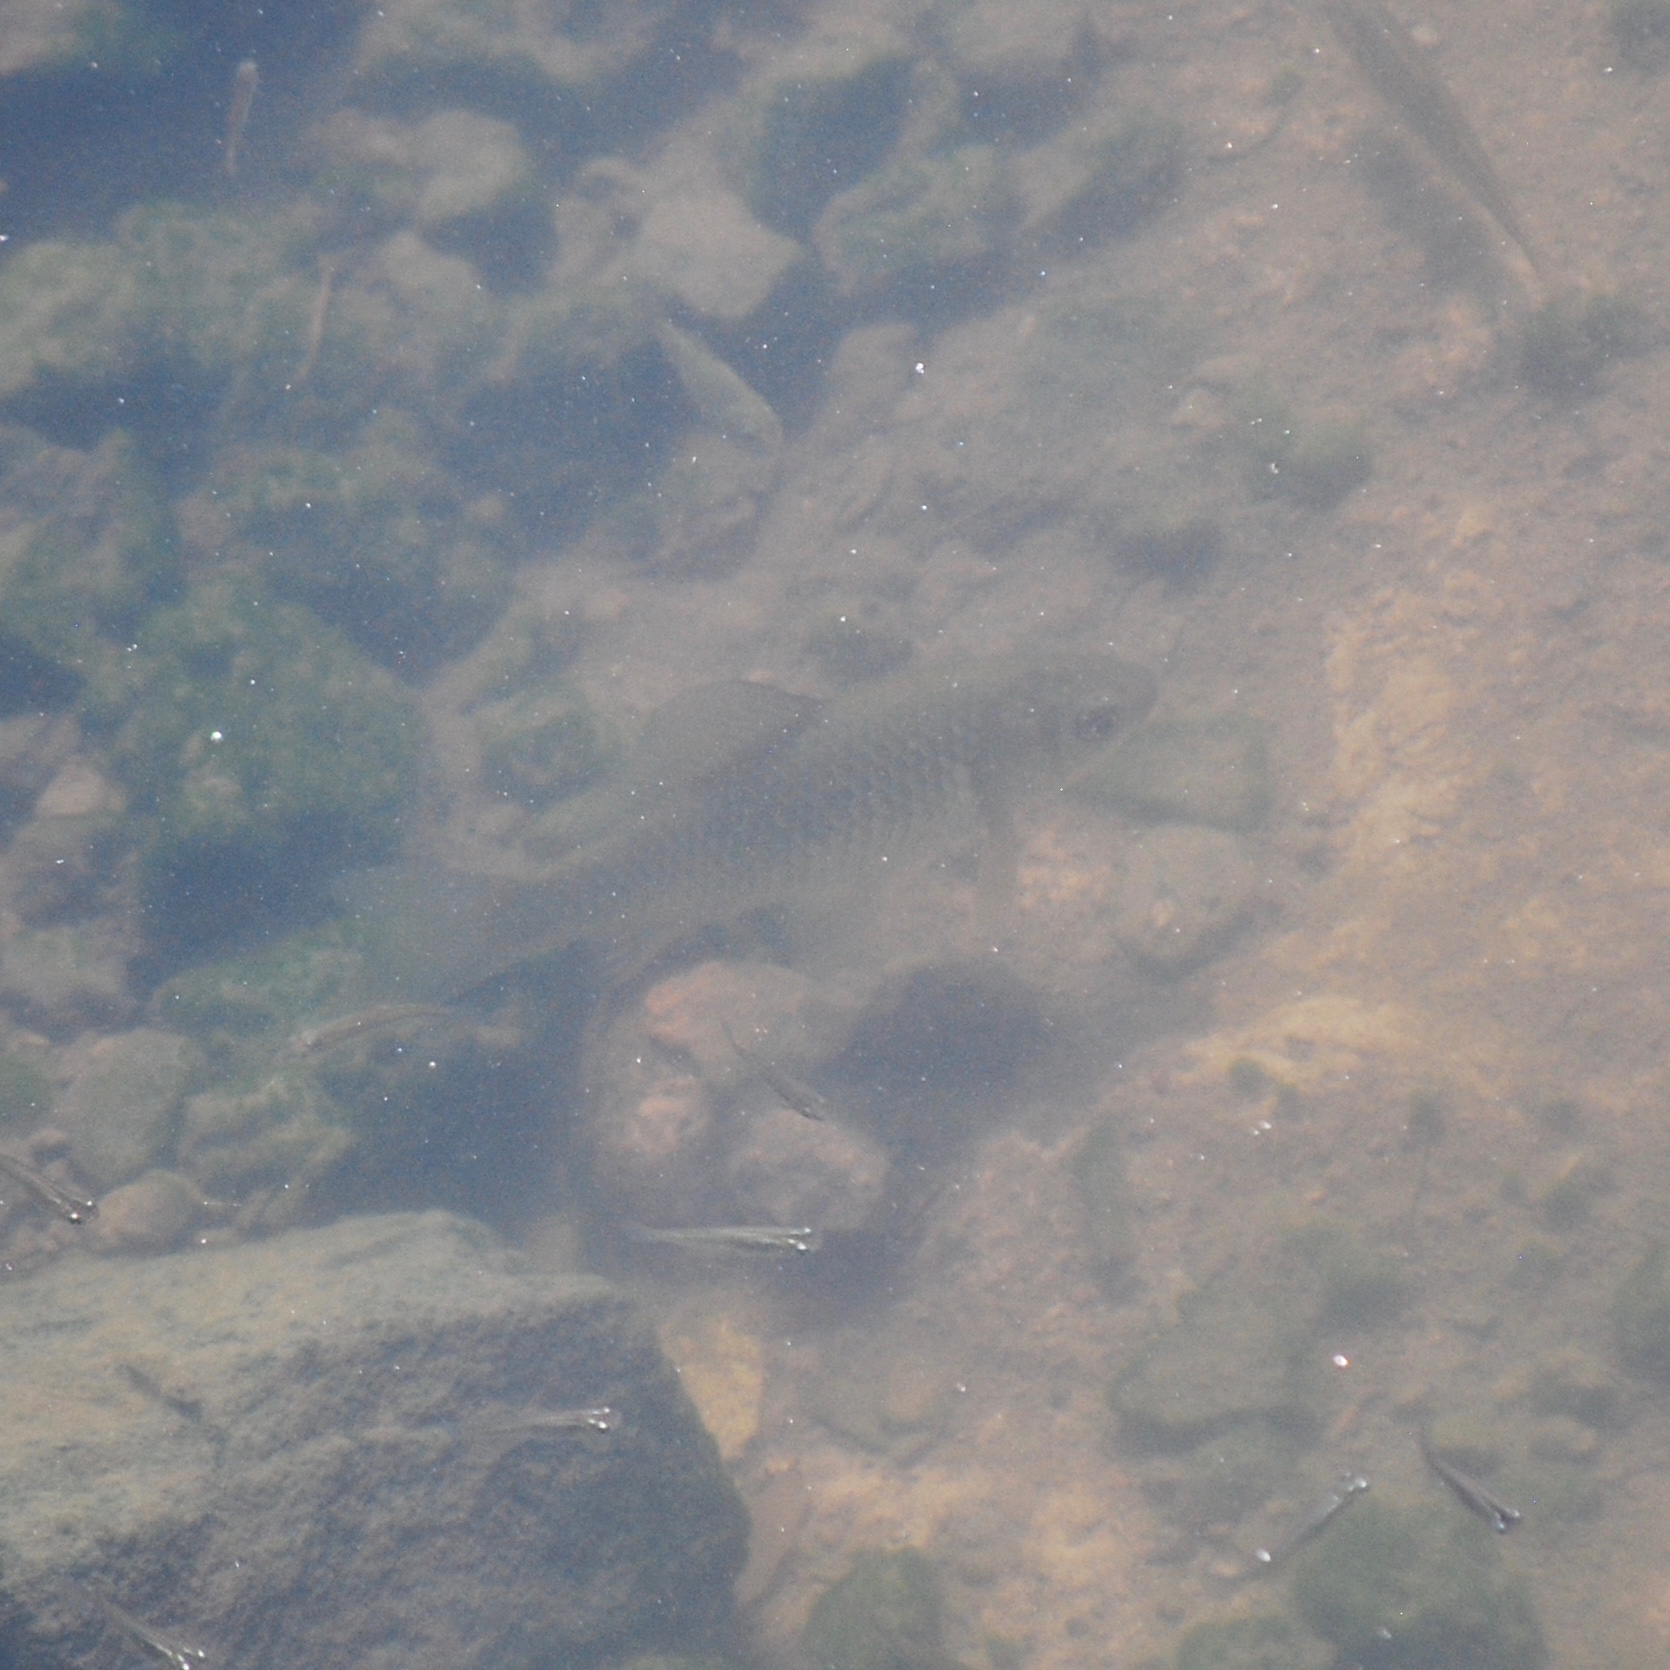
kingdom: Animalia
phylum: Chordata
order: Cypriniformes
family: Cyprinidae
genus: Carassius
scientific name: Carassius auratus
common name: Goldfish
